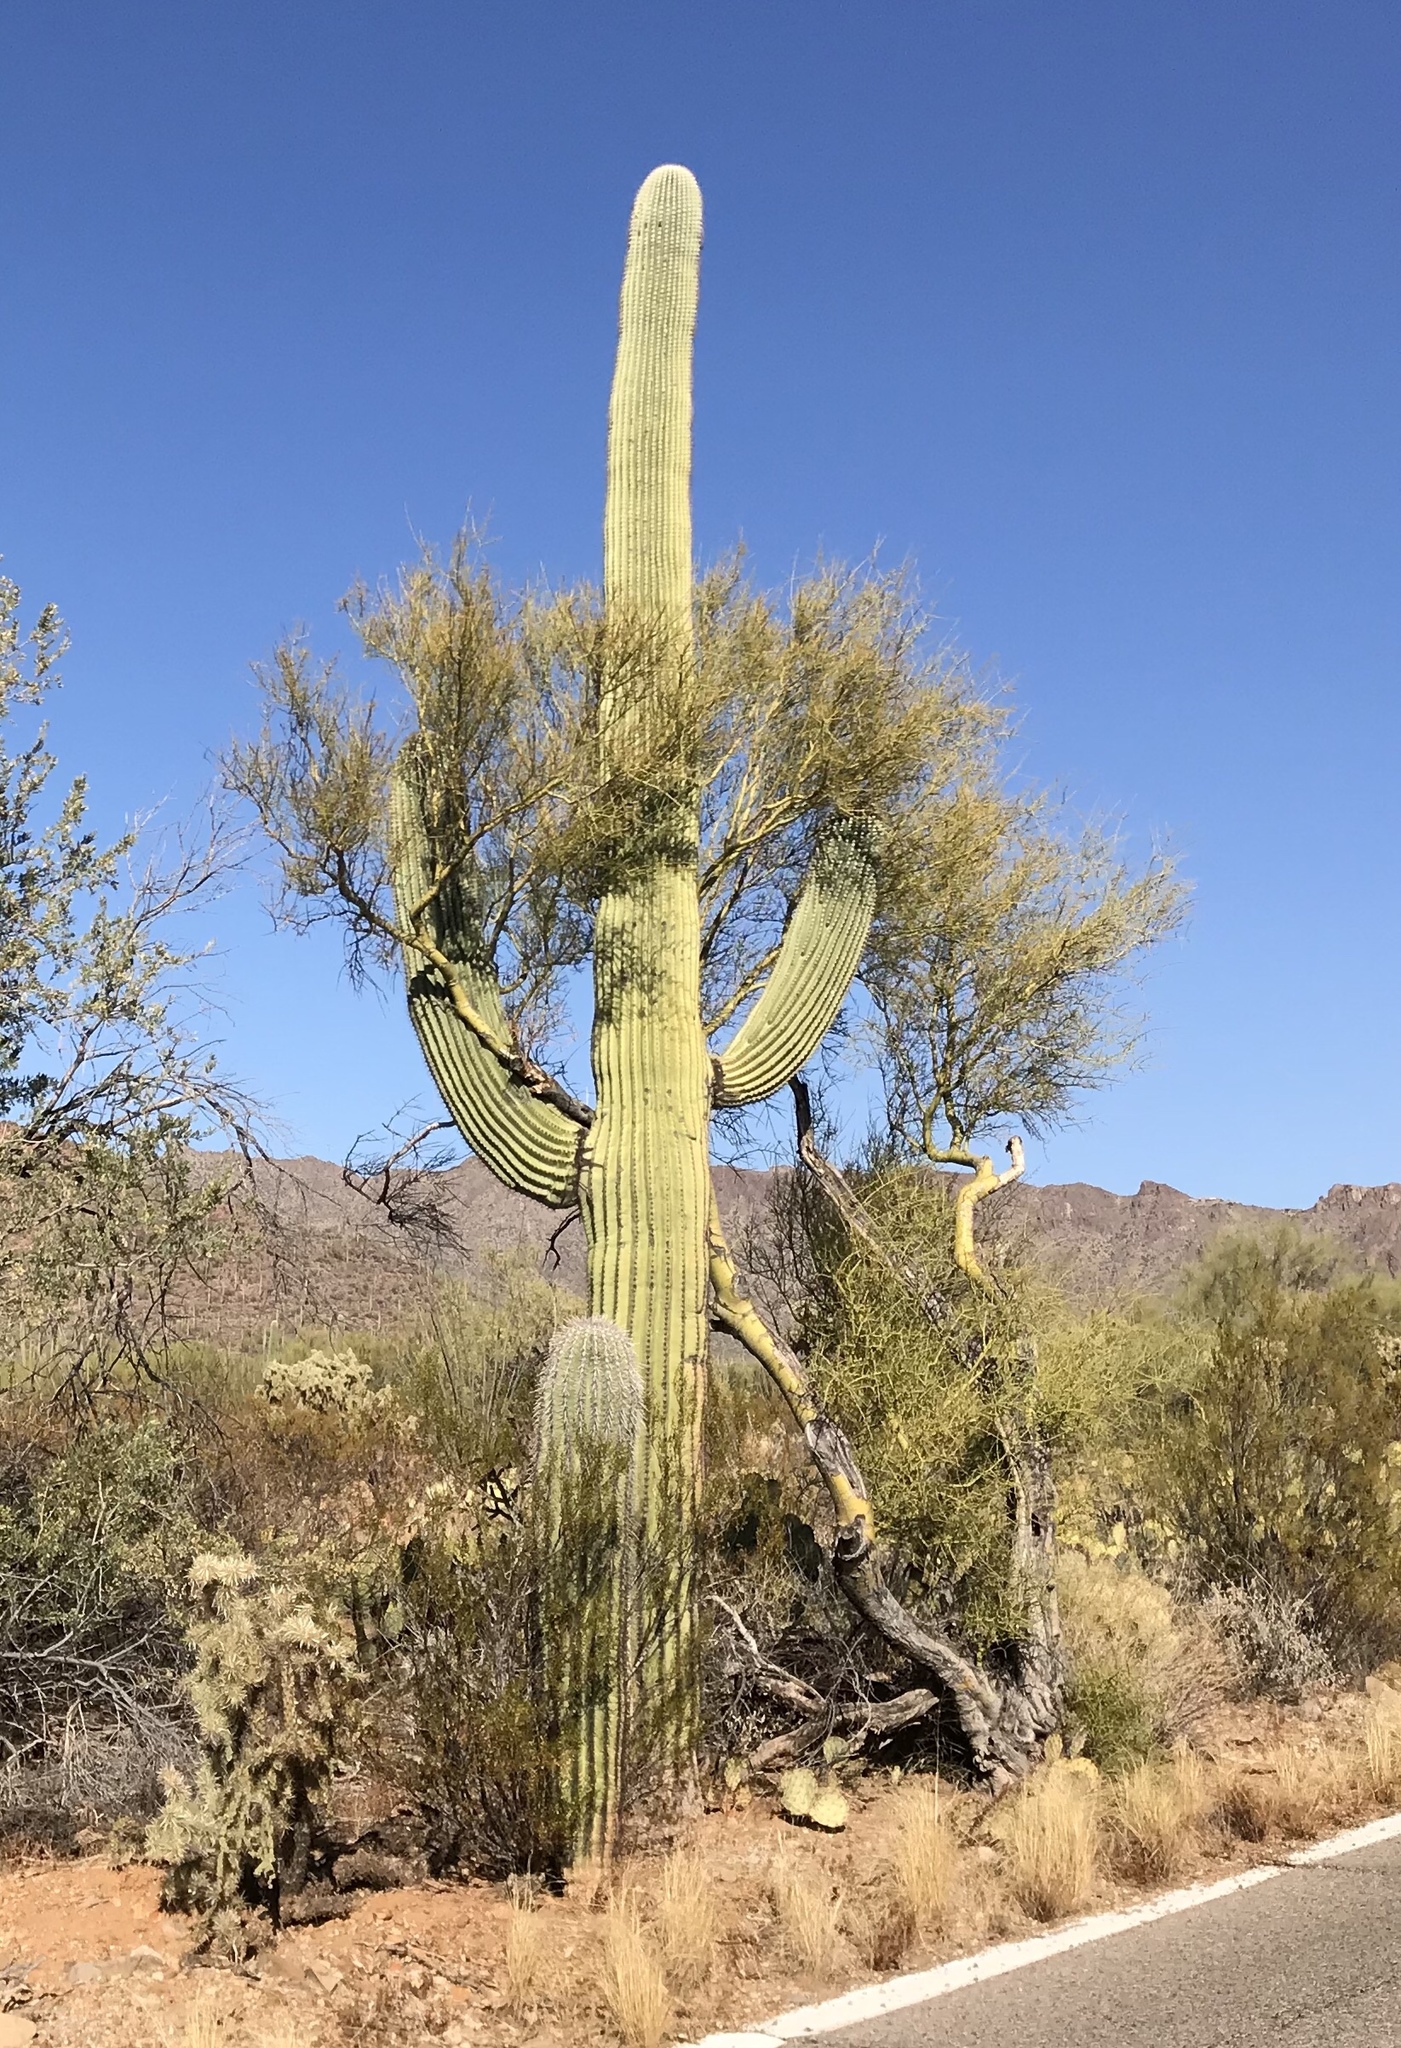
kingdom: Plantae
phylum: Tracheophyta
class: Magnoliopsida
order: Caryophyllales
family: Cactaceae
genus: Carnegiea
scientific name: Carnegiea gigantea
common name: Saguaro
